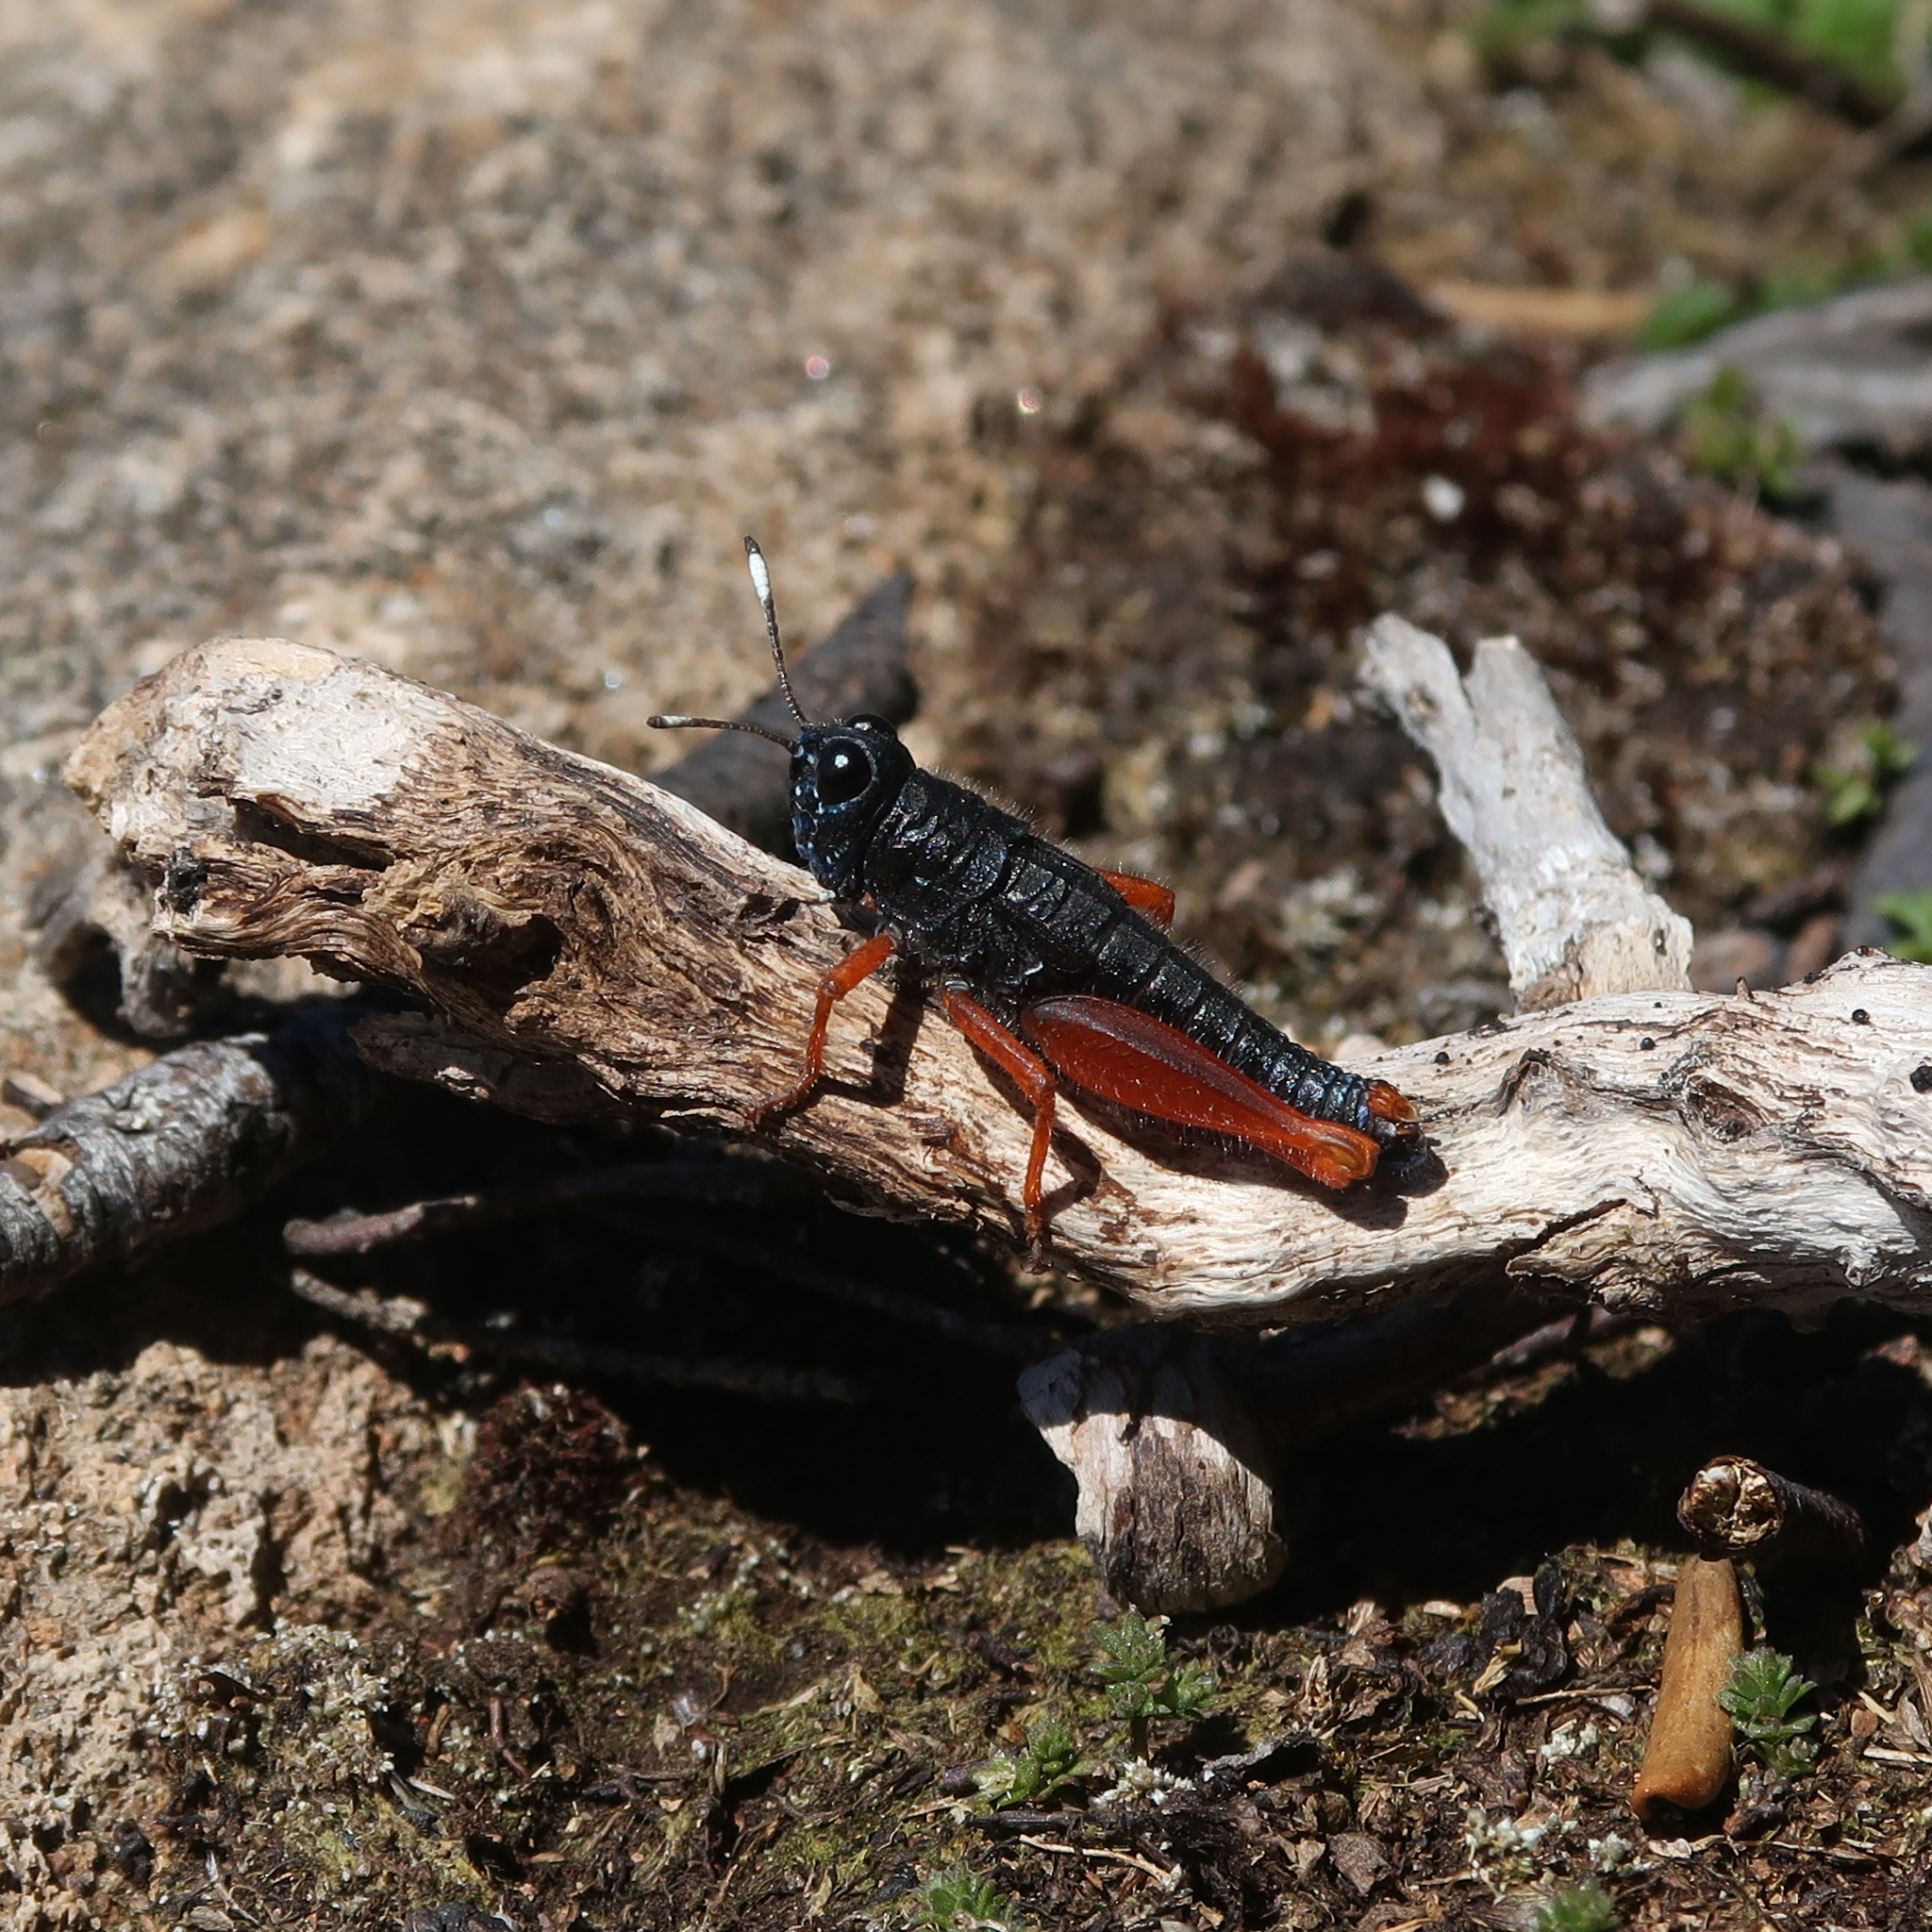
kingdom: Animalia
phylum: Arthropoda
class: Insecta
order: Orthoptera
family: Acrididae
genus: Tasmanalpina
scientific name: Tasmanalpina clavata
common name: Tasmanian velvet grasshopper
